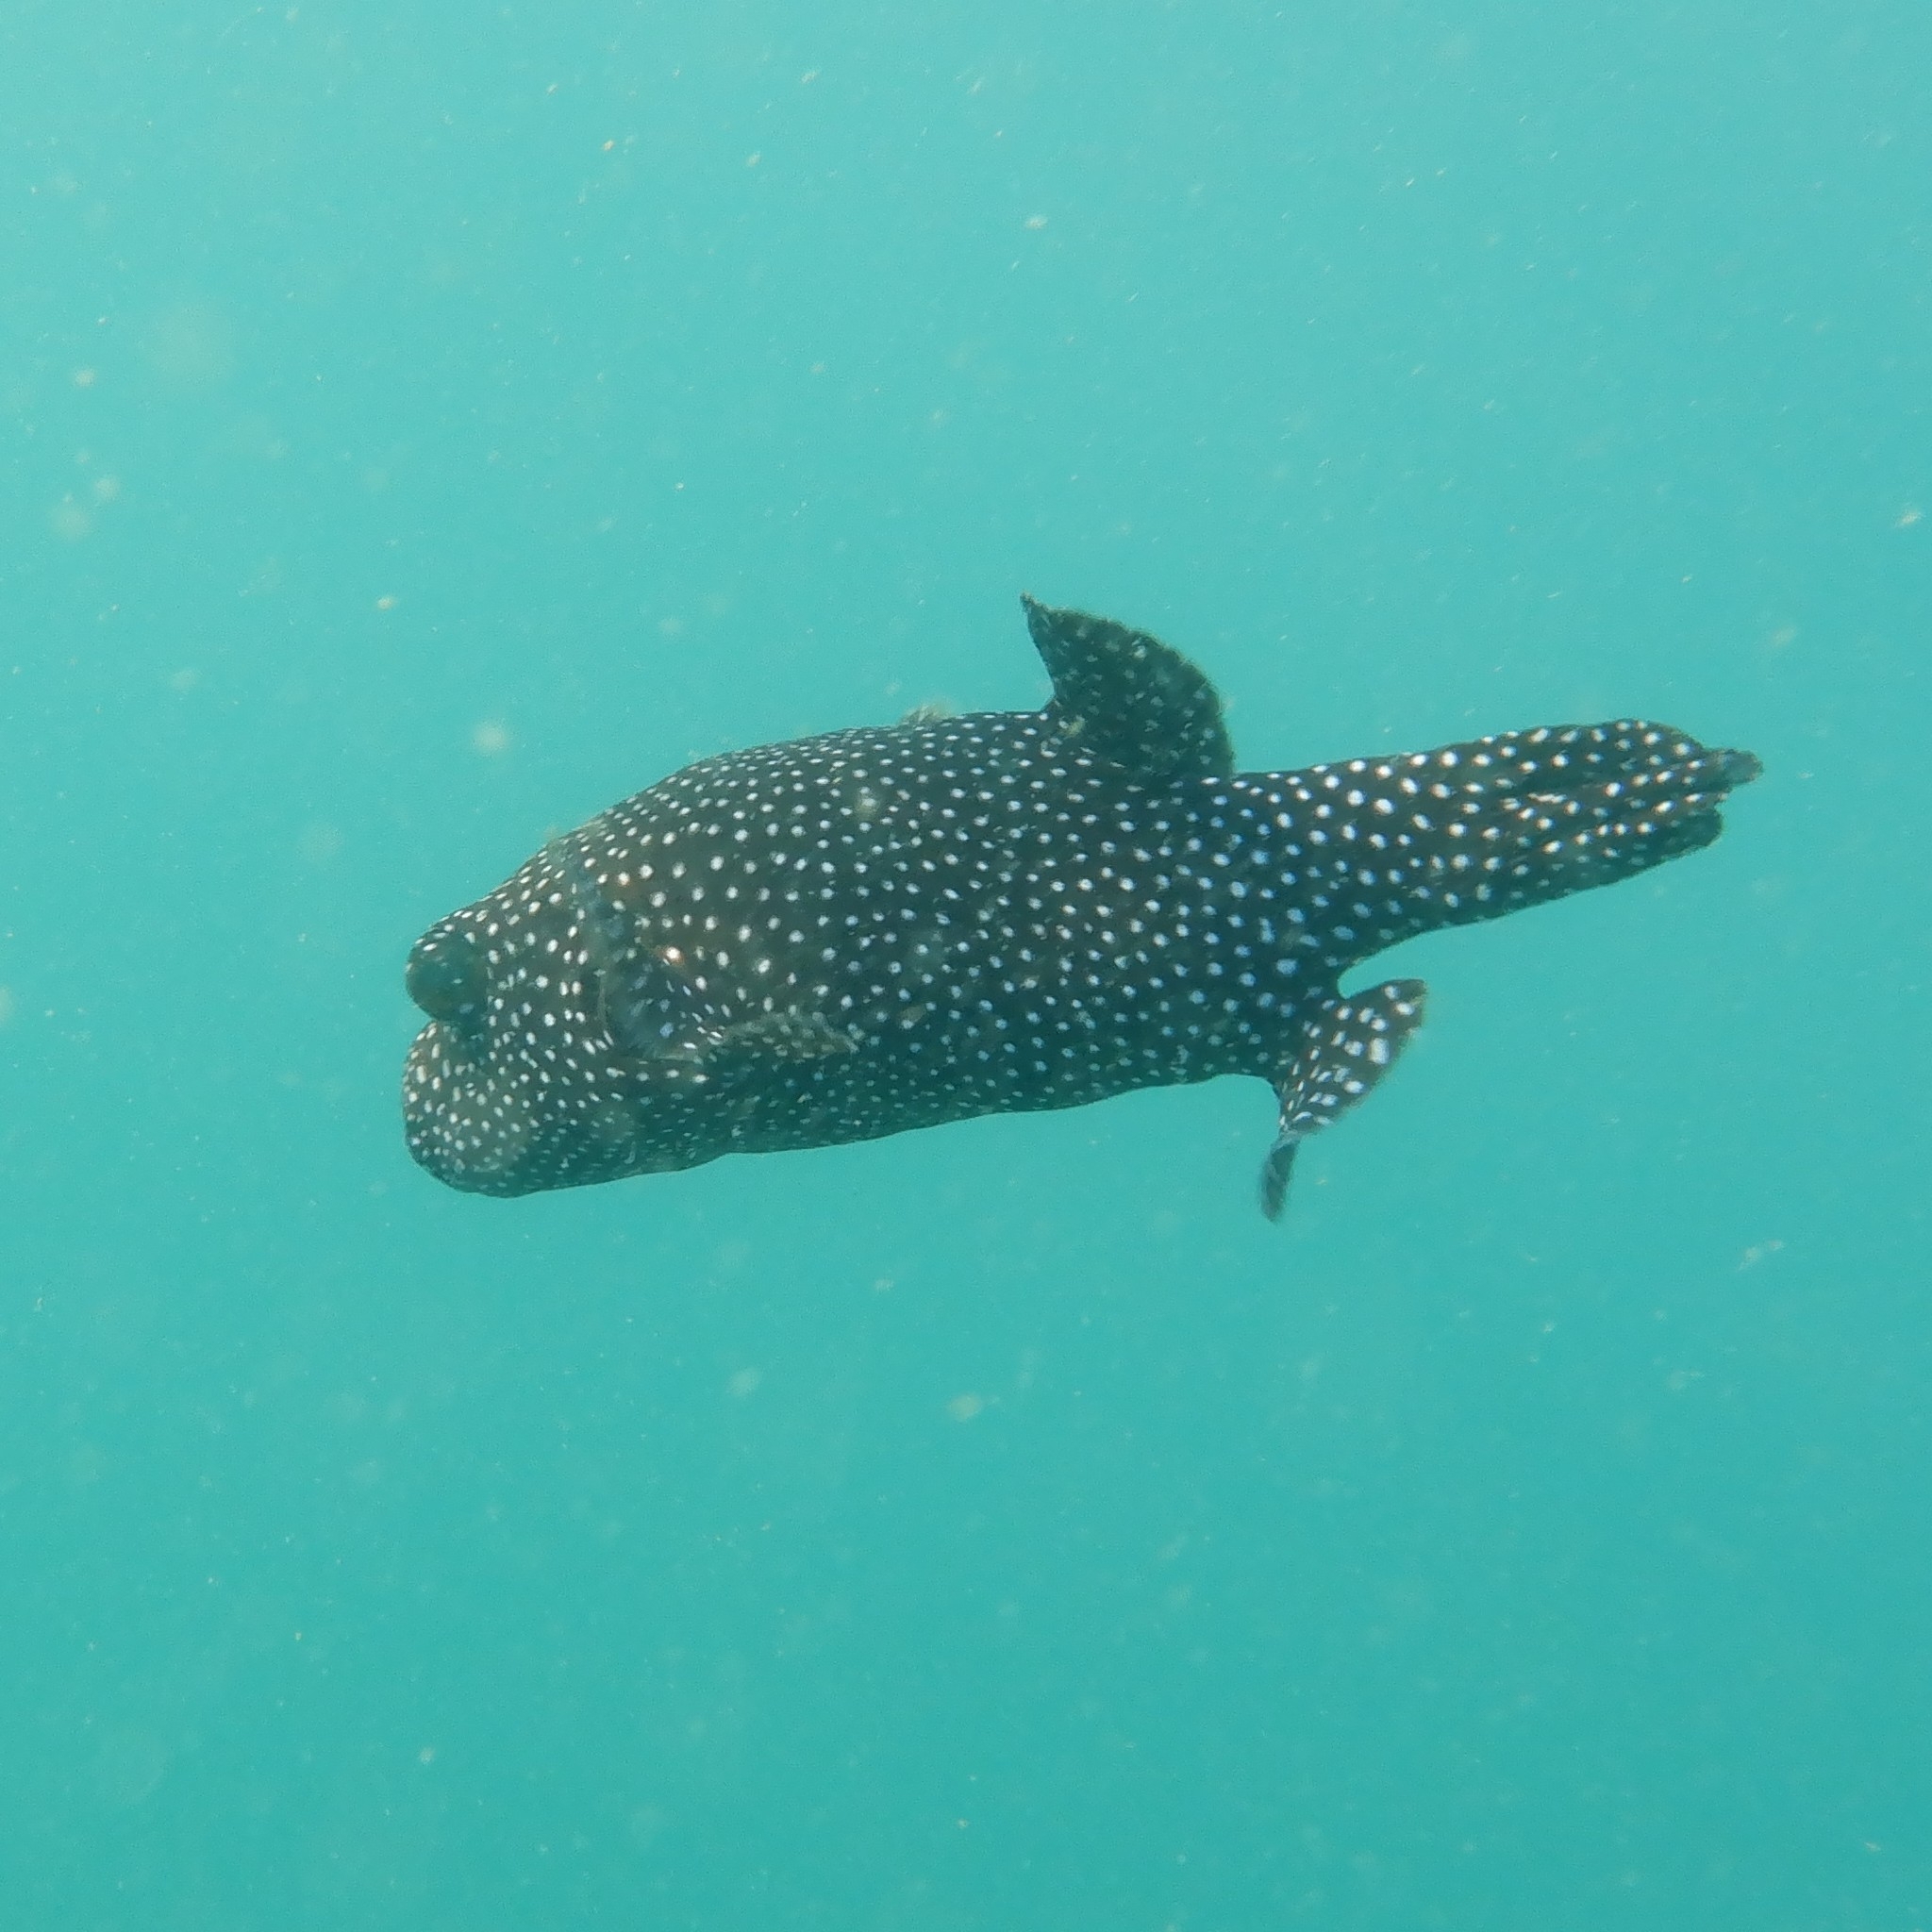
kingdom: Animalia
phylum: Chordata
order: Tetraodontiformes
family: Tetraodontidae
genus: Arothron
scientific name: Arothron meleagris
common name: Guinea-fowl pufferfish
